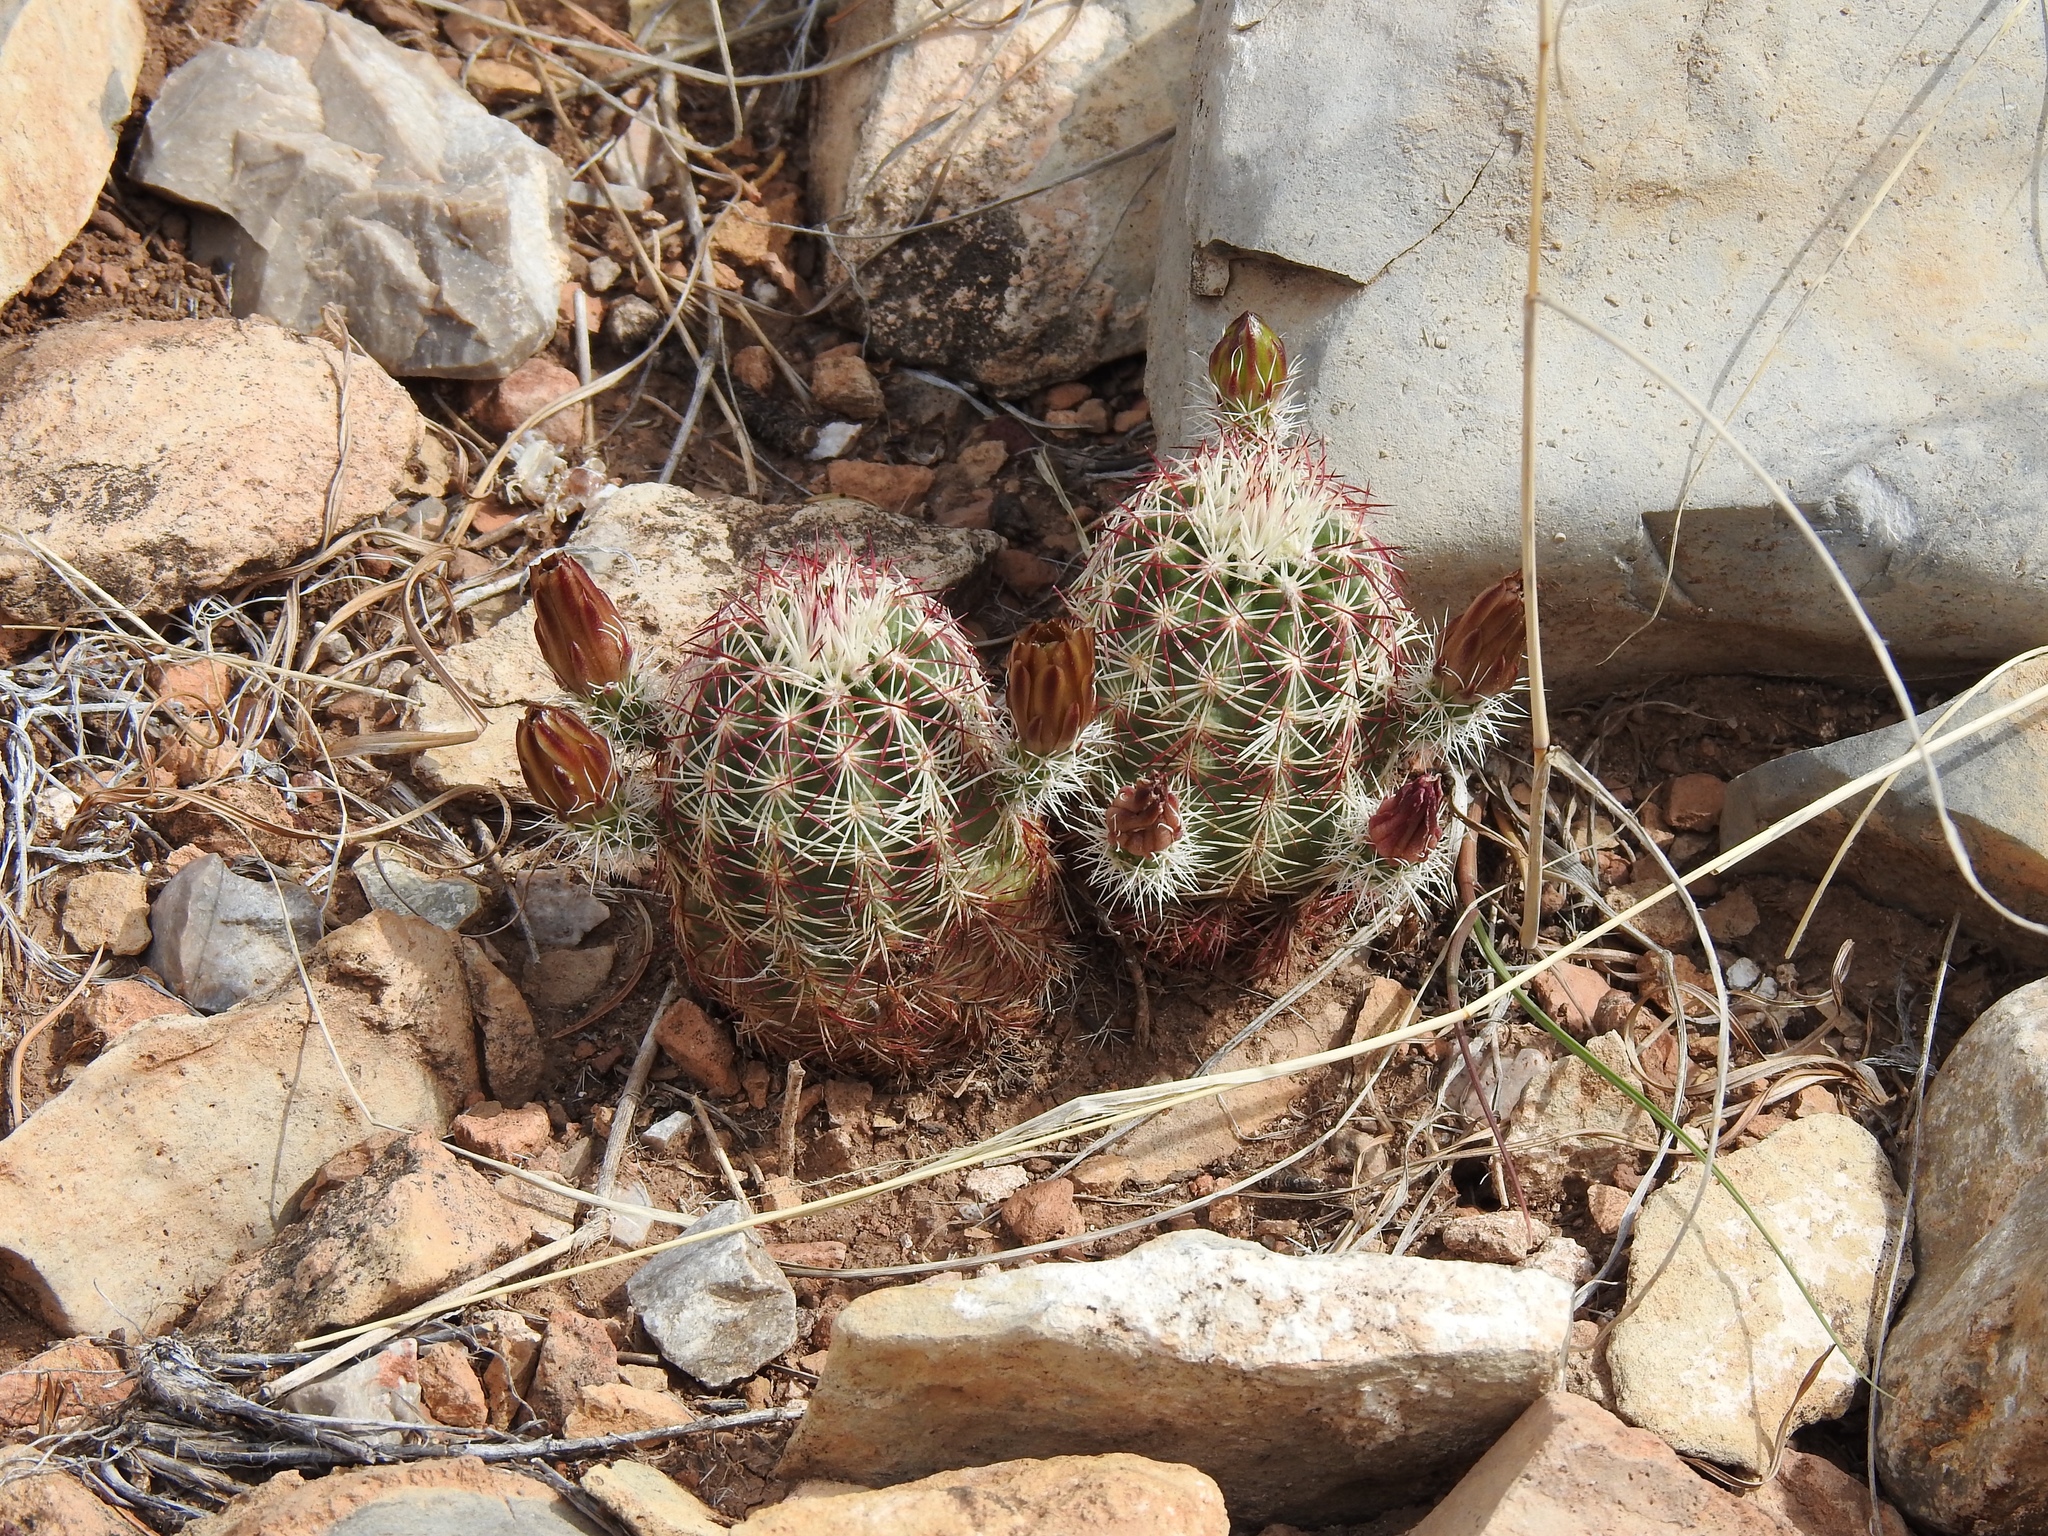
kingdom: Plantae
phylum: Tracheophyta
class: Magnoliopsida
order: Caryophyllales
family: Cactaceae
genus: Echinocereus
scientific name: Echinocereus viridiflorus
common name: Nylon hedgehog cactus
